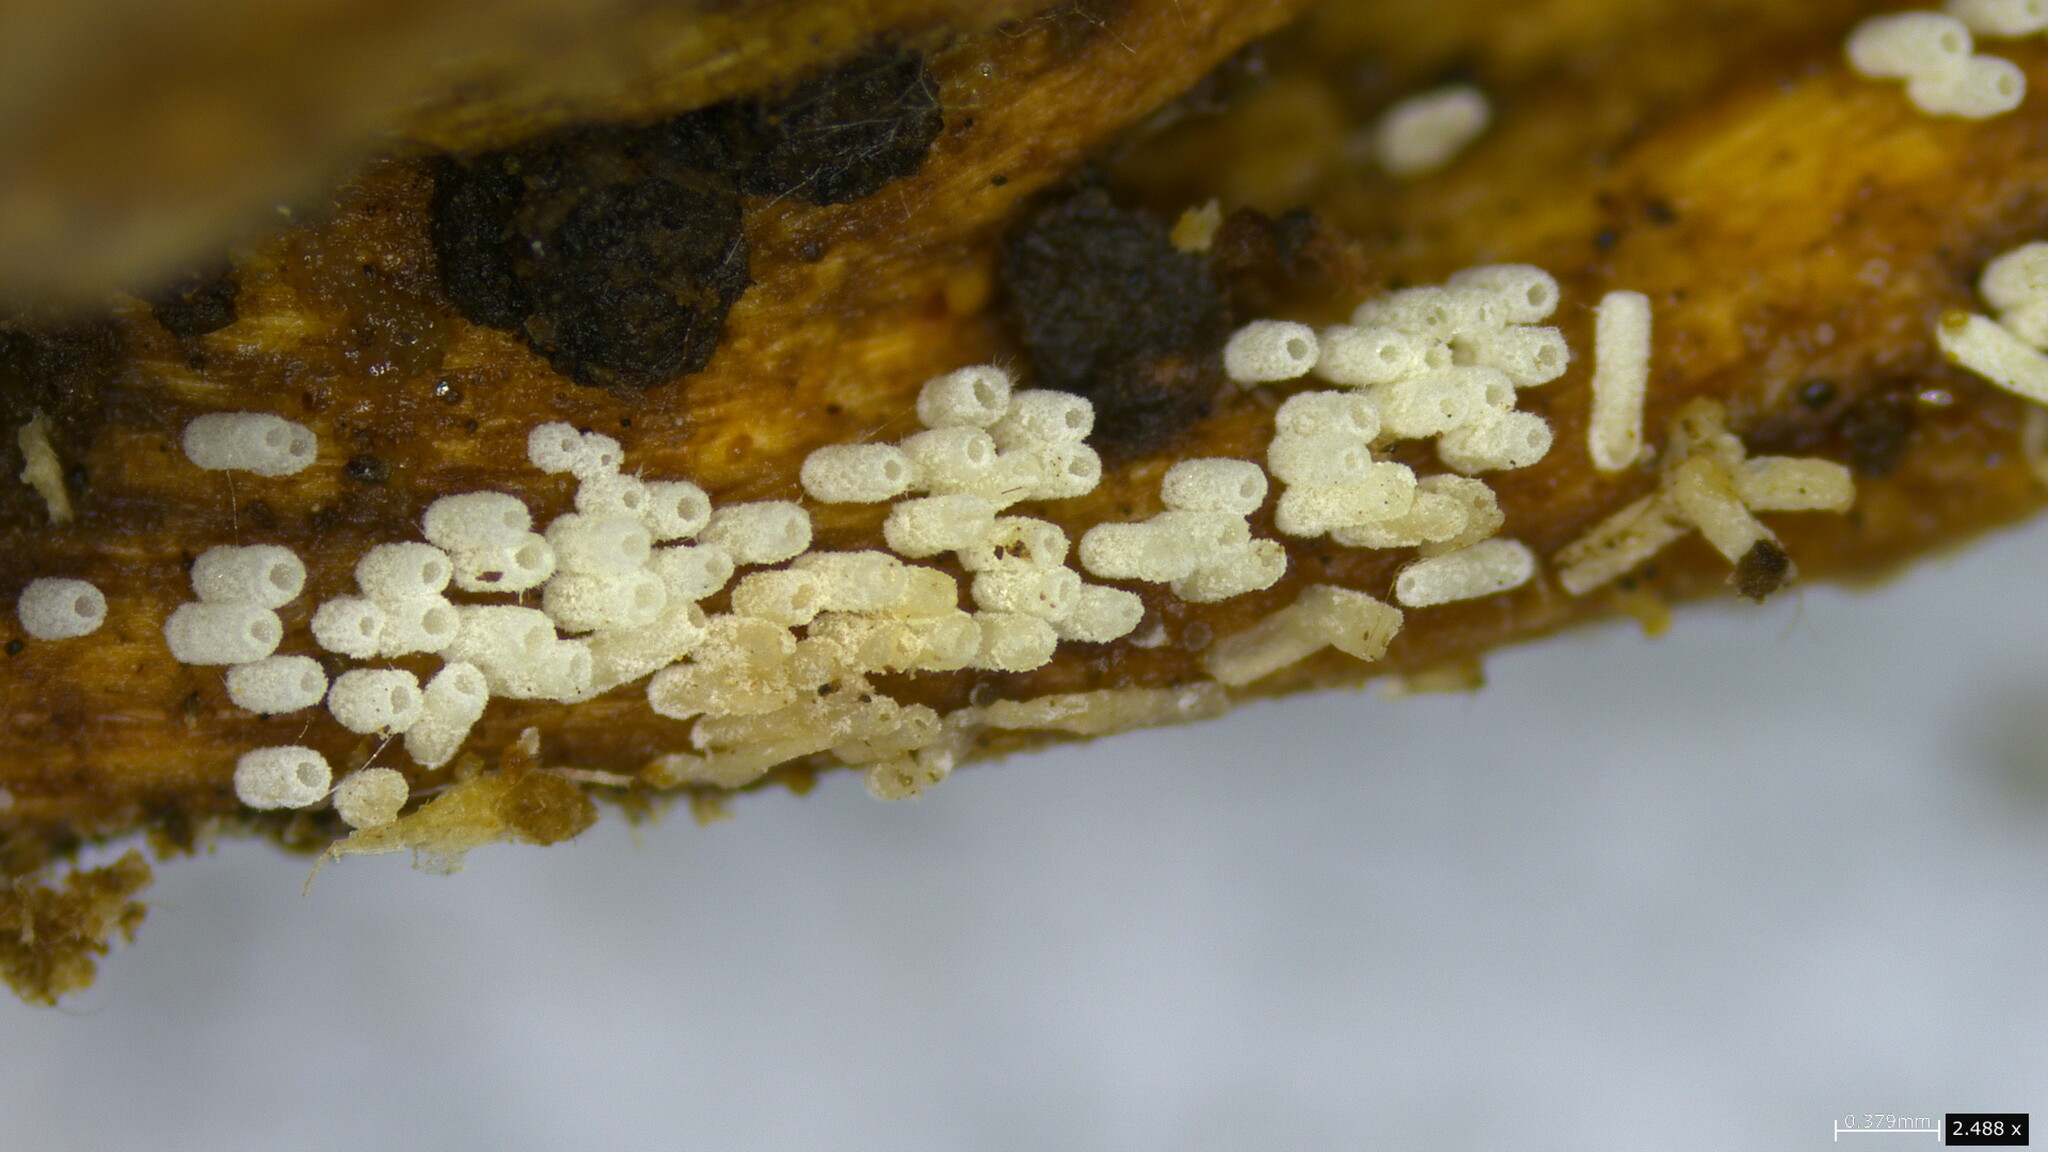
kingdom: Fungi
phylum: Basidiomycota
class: Agaricomycetes
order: Agaricales
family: Marasmiaceae
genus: Henningsomyces
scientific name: Henningsomyces candidus
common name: White tubelet
